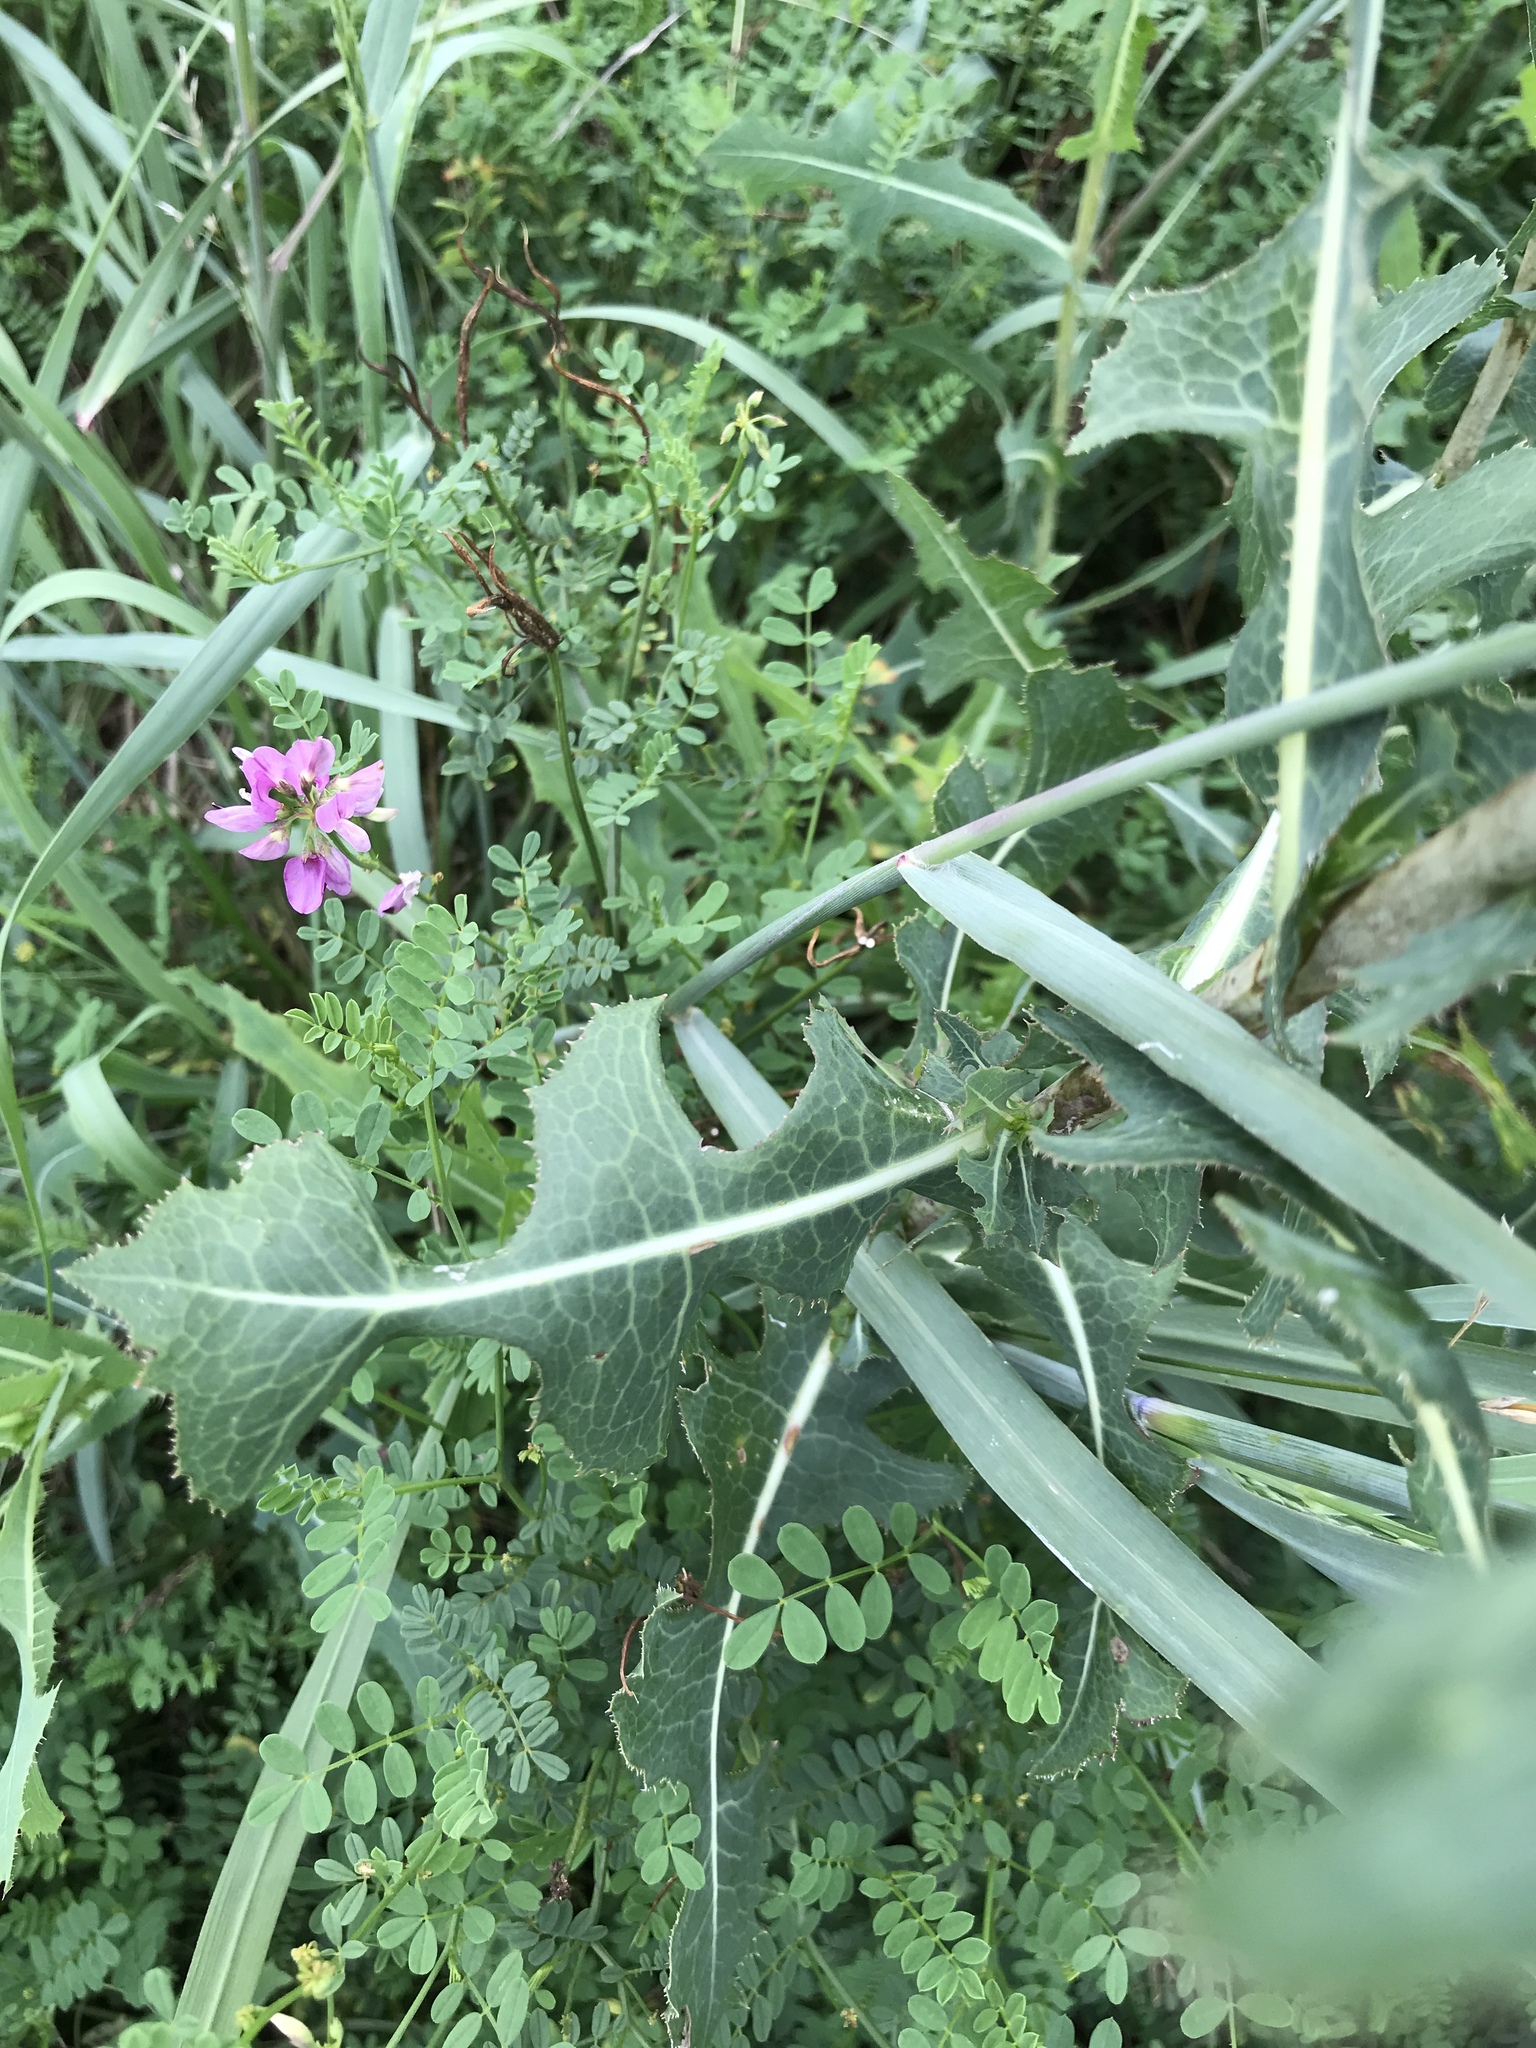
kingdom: Plantae
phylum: Tracheophyta
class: Magnoliopsida
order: Asterales
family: Asteraceae
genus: Lactuca
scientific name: Lactuca serriola
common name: Prickly lettuce
